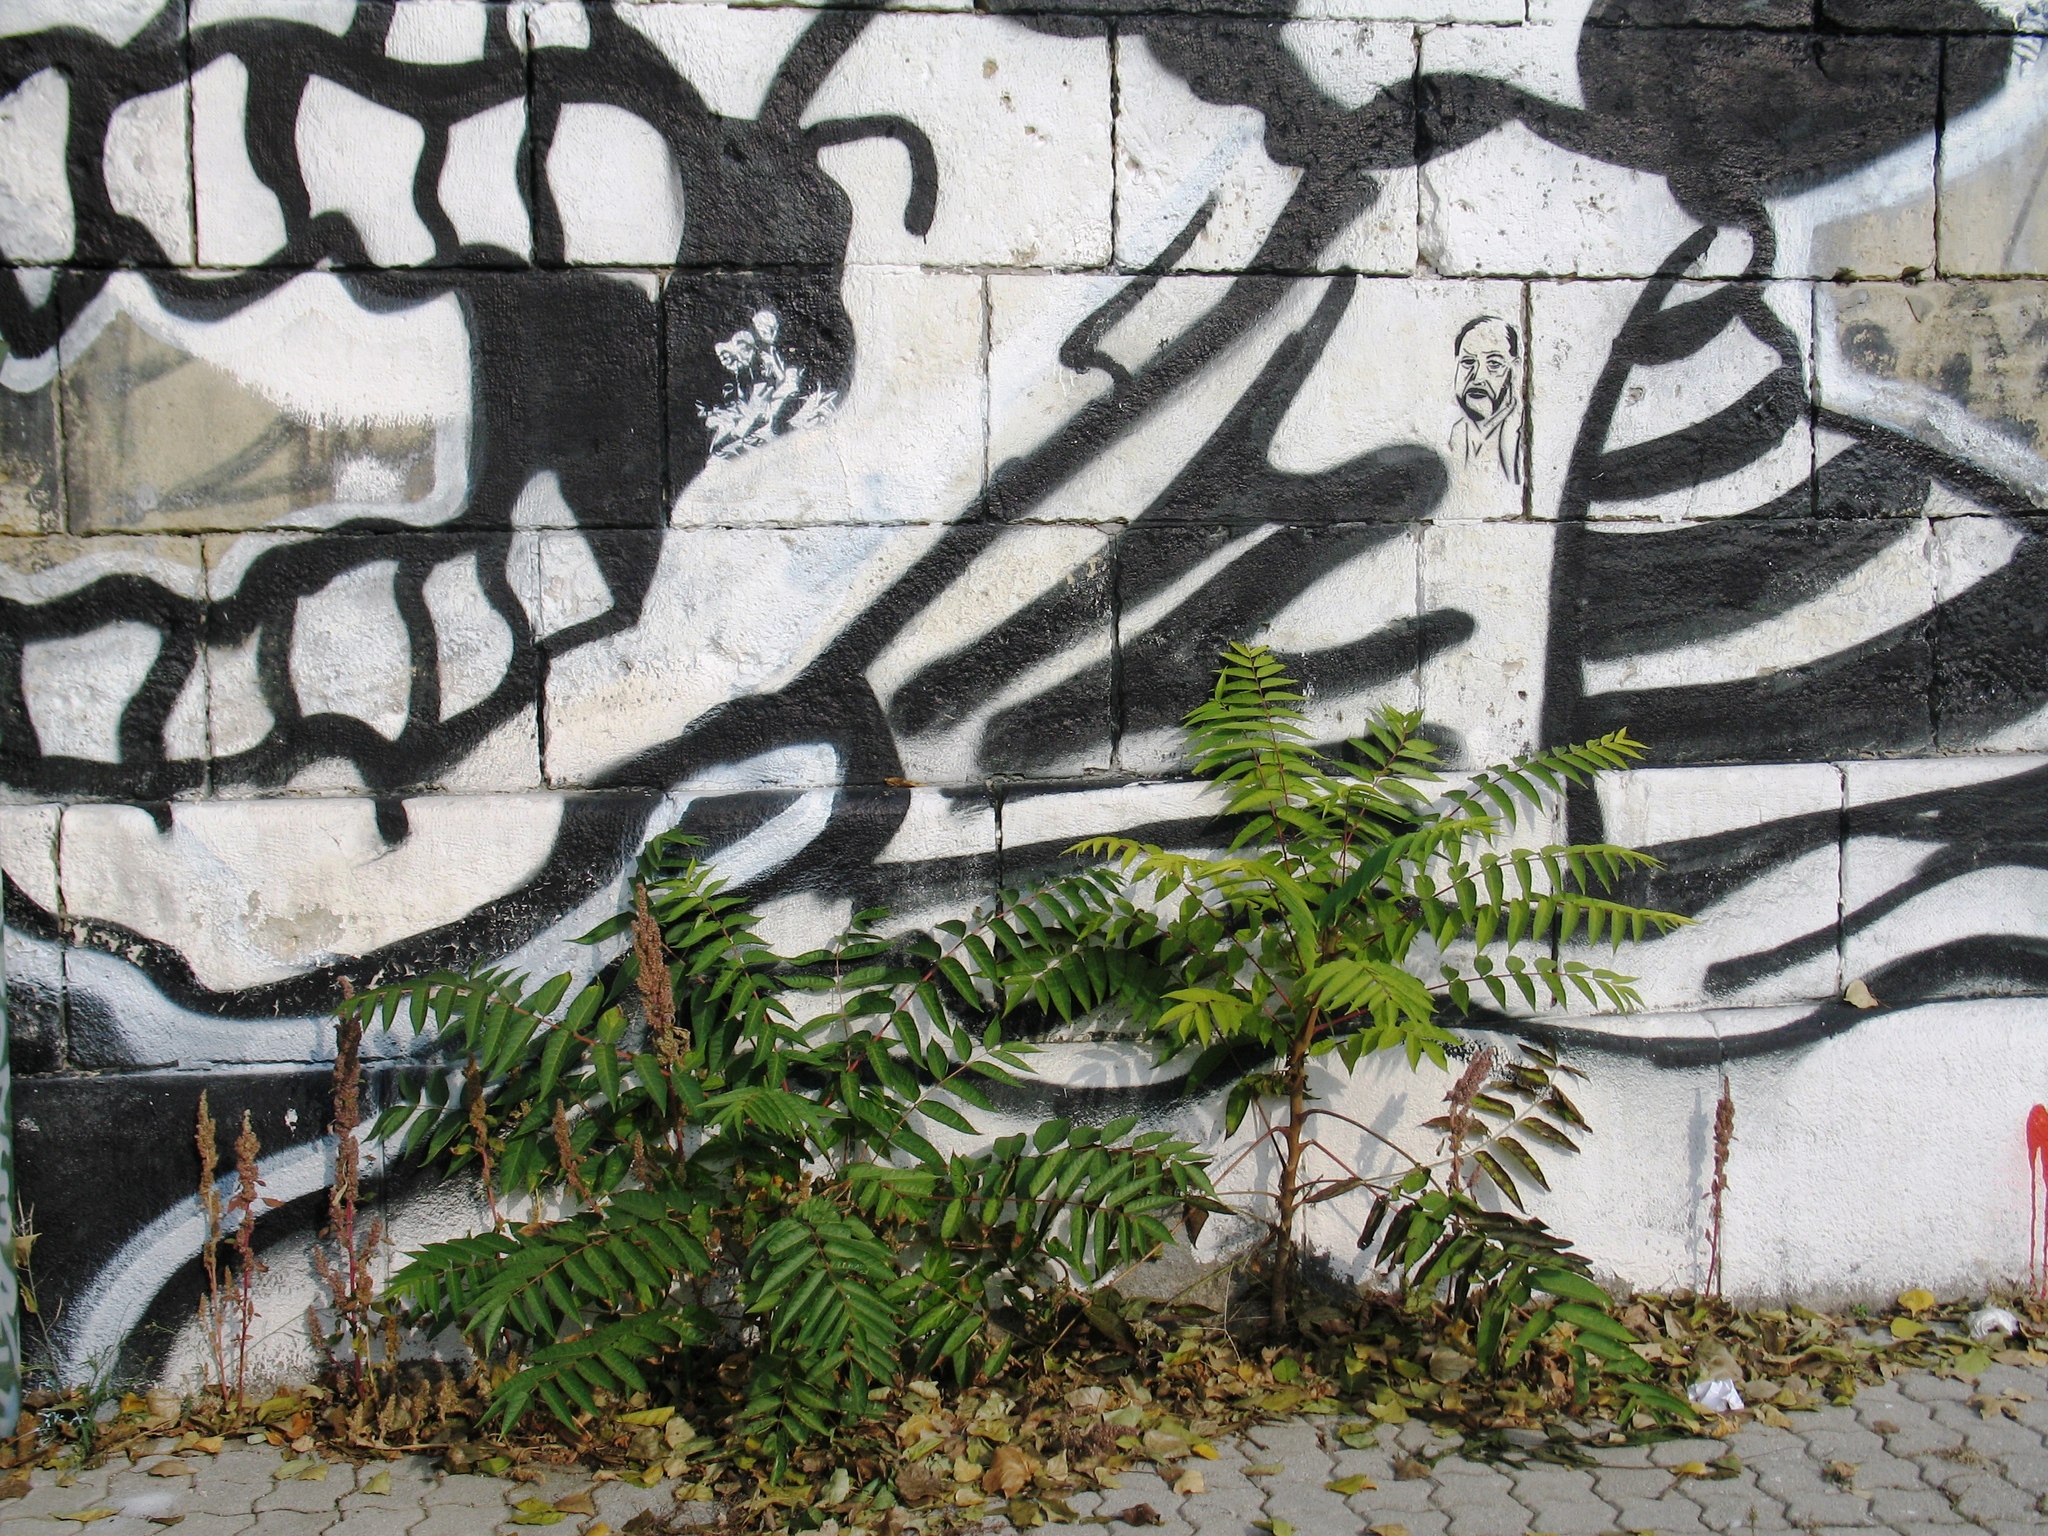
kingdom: Plantae
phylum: Tracheophyta
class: Magnoliopsida
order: Sapindales
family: Simaroubaceae
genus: Ailanthus
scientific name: Ailanthus altissima
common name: Tree-of-heaven
